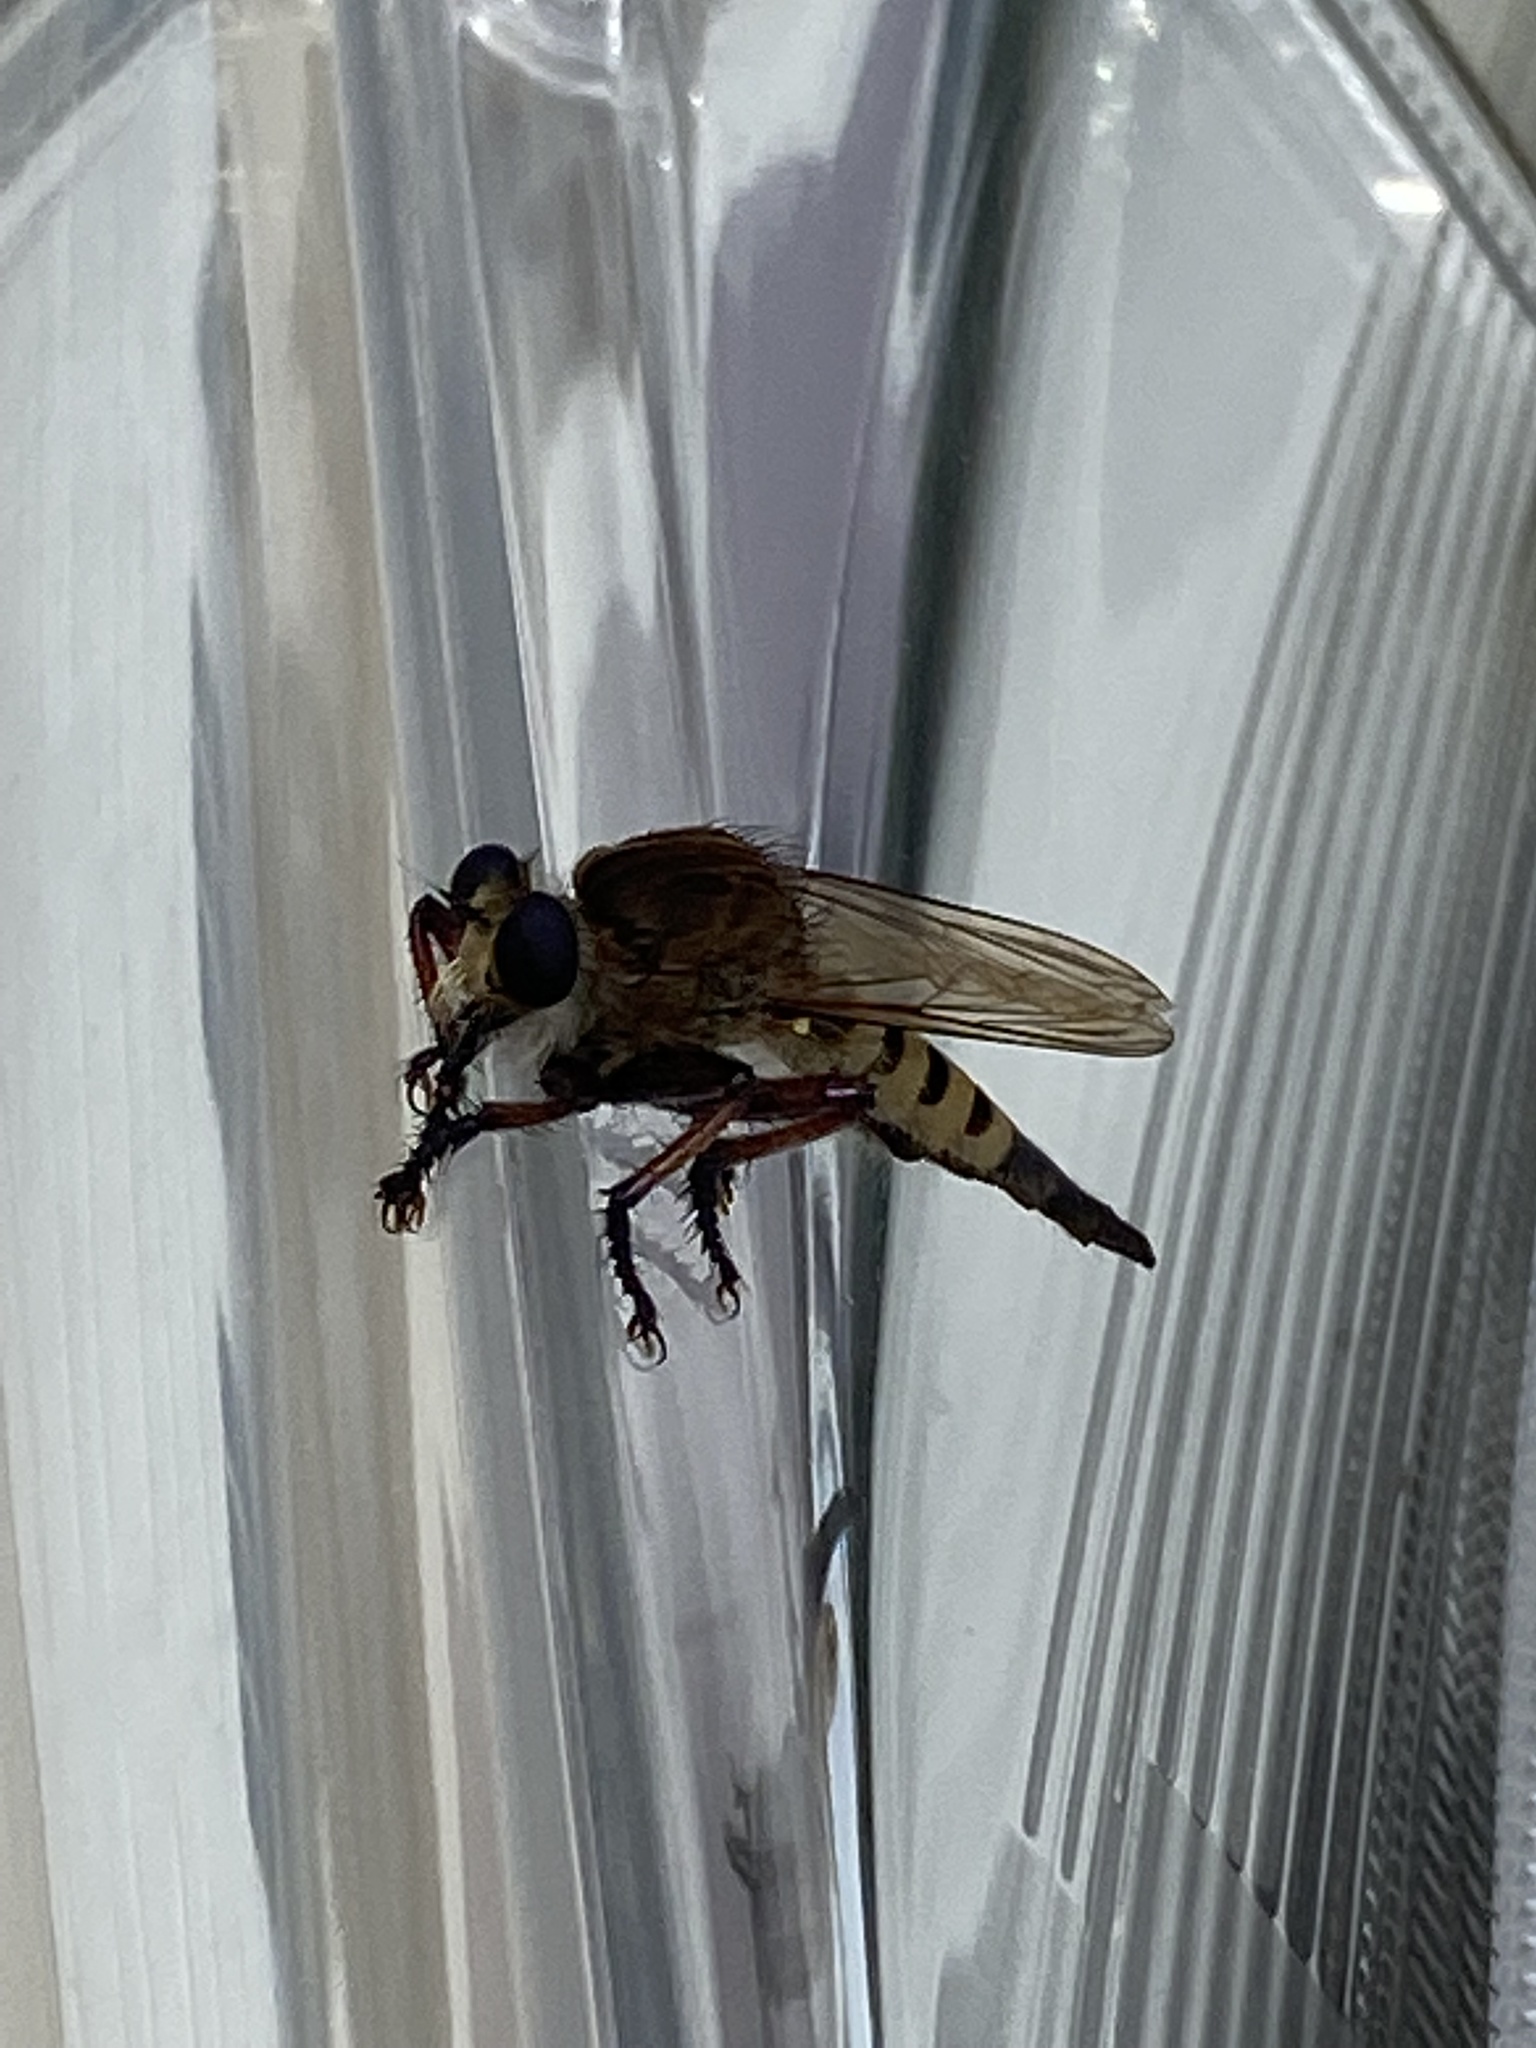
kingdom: Animalia
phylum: Arthropoda
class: Insecta
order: Diptera
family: Asilidae
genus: Promachus
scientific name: Promachus hinei
